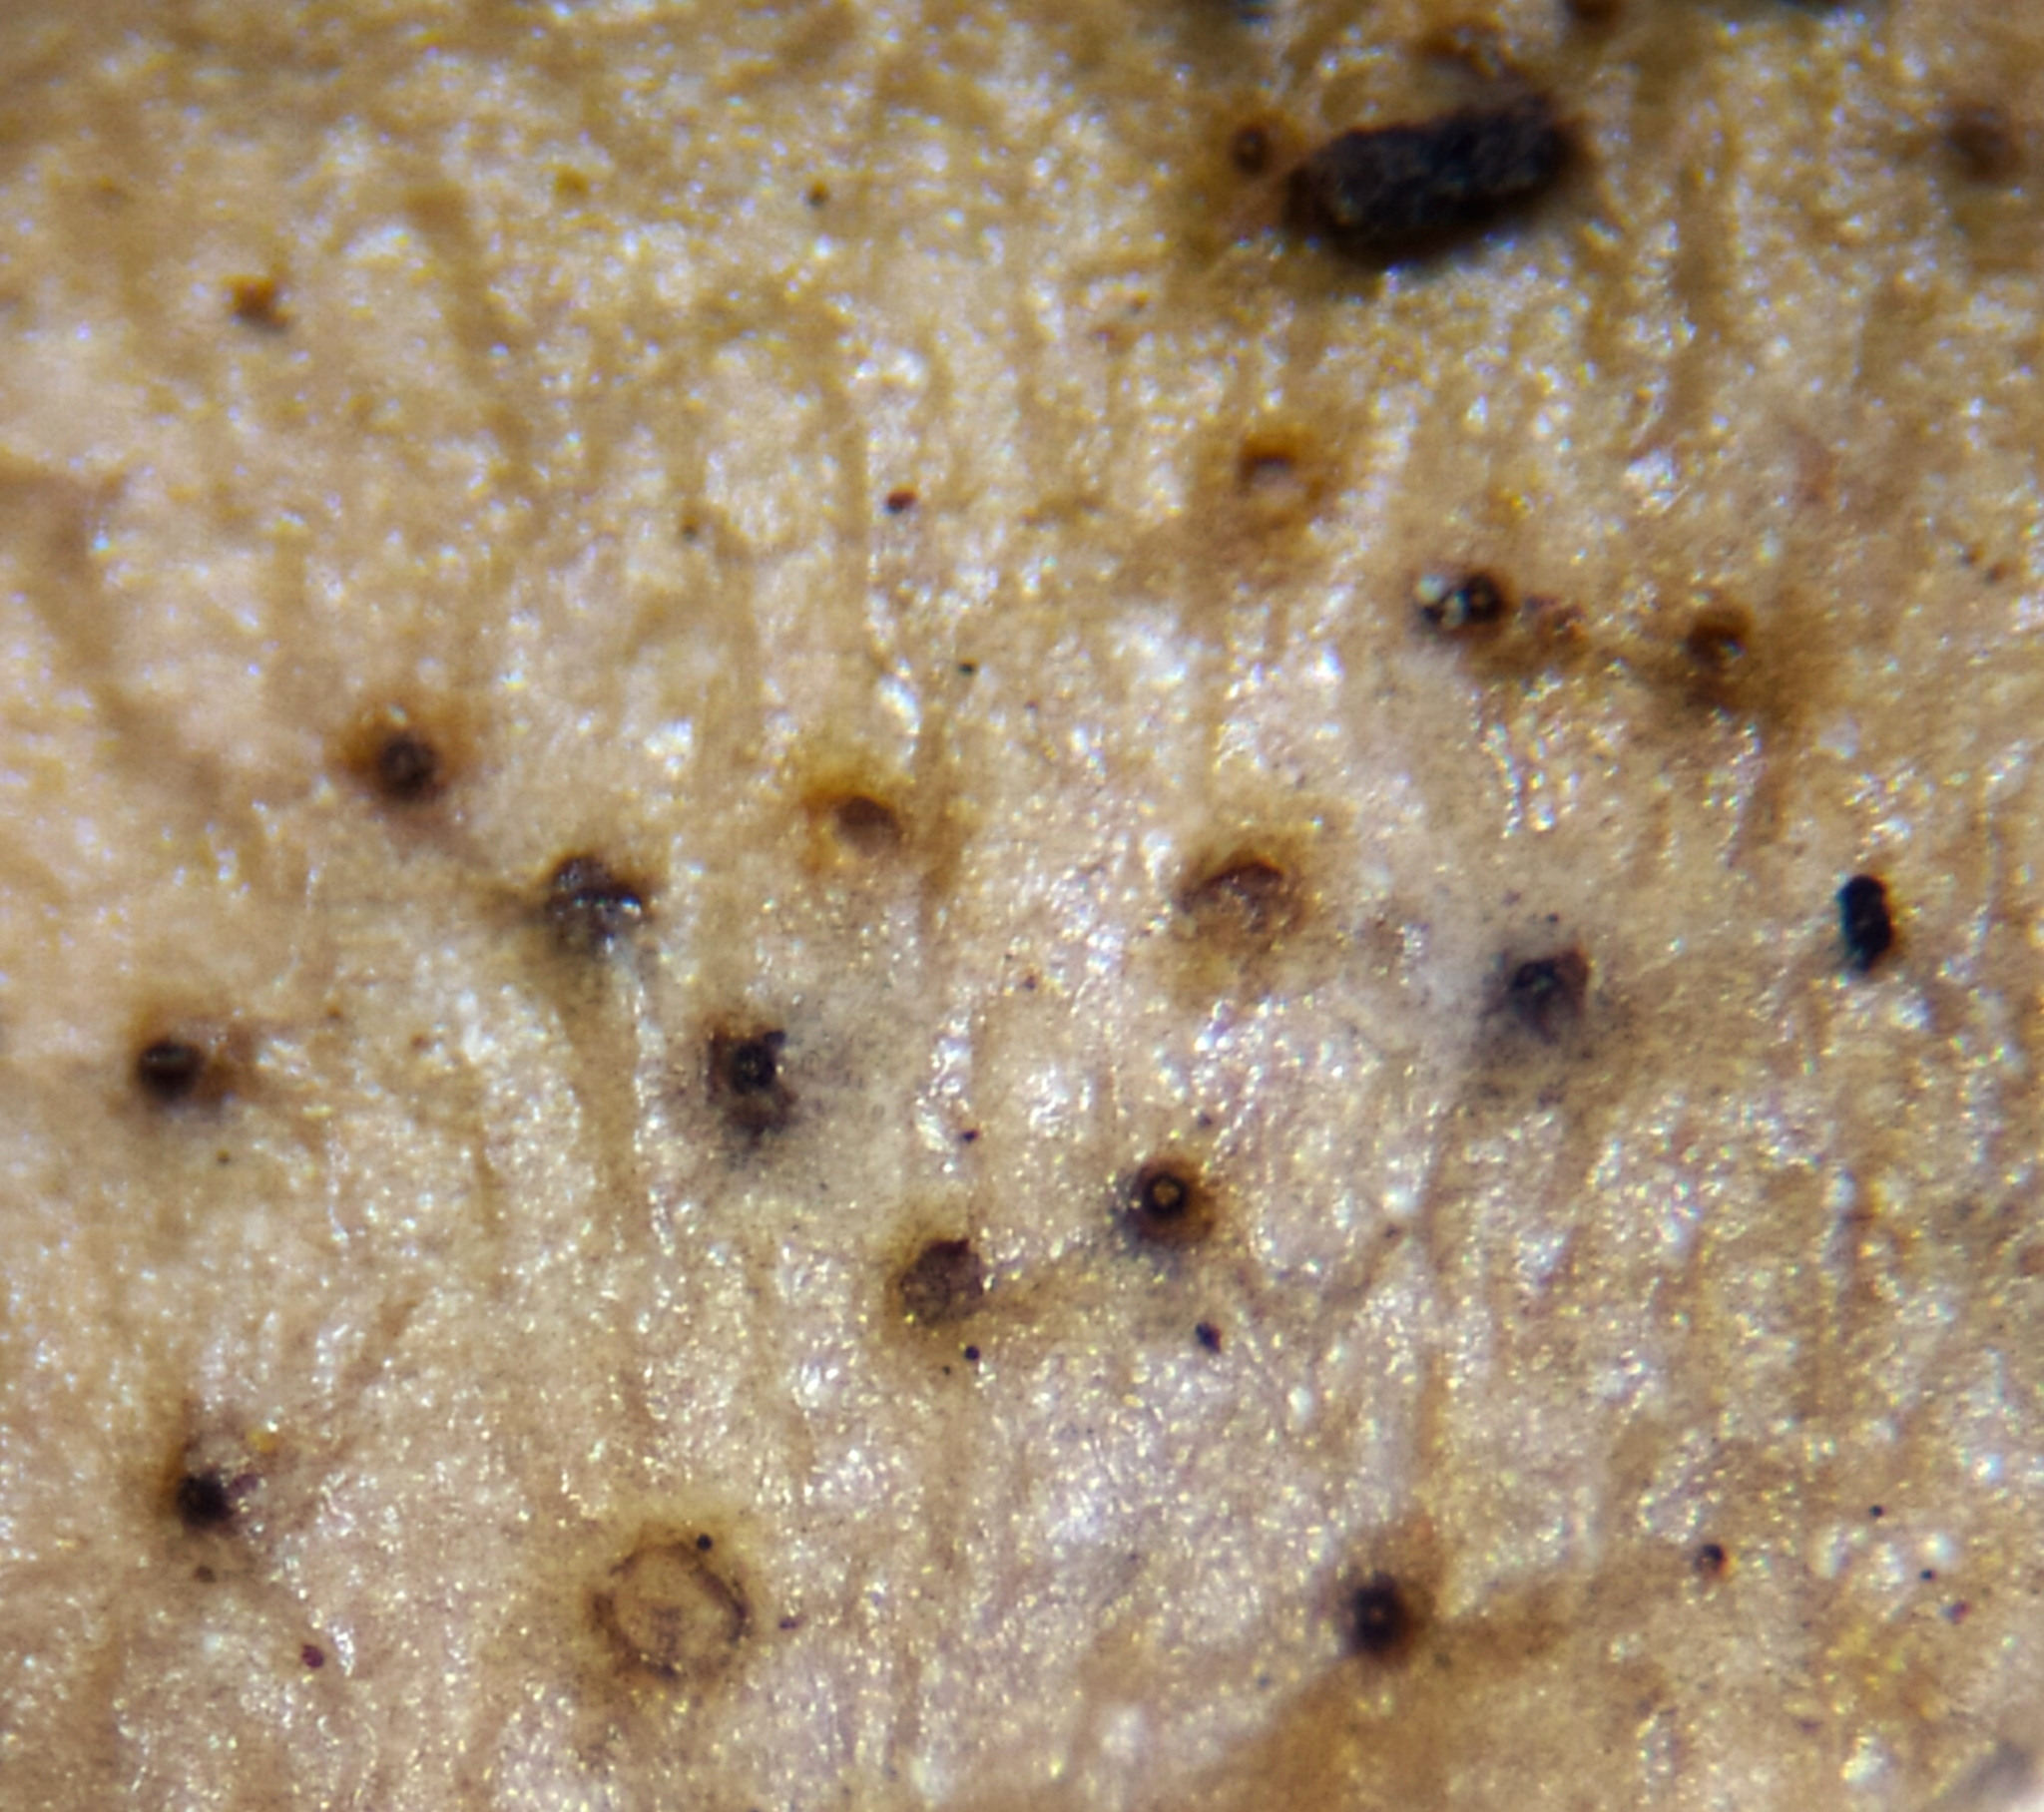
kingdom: Fungi
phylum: Ascomycota
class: Sordariomycetes
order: Xylariales
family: Hyponectriaceae
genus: Hyponectria
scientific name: Hyponectria buxi
